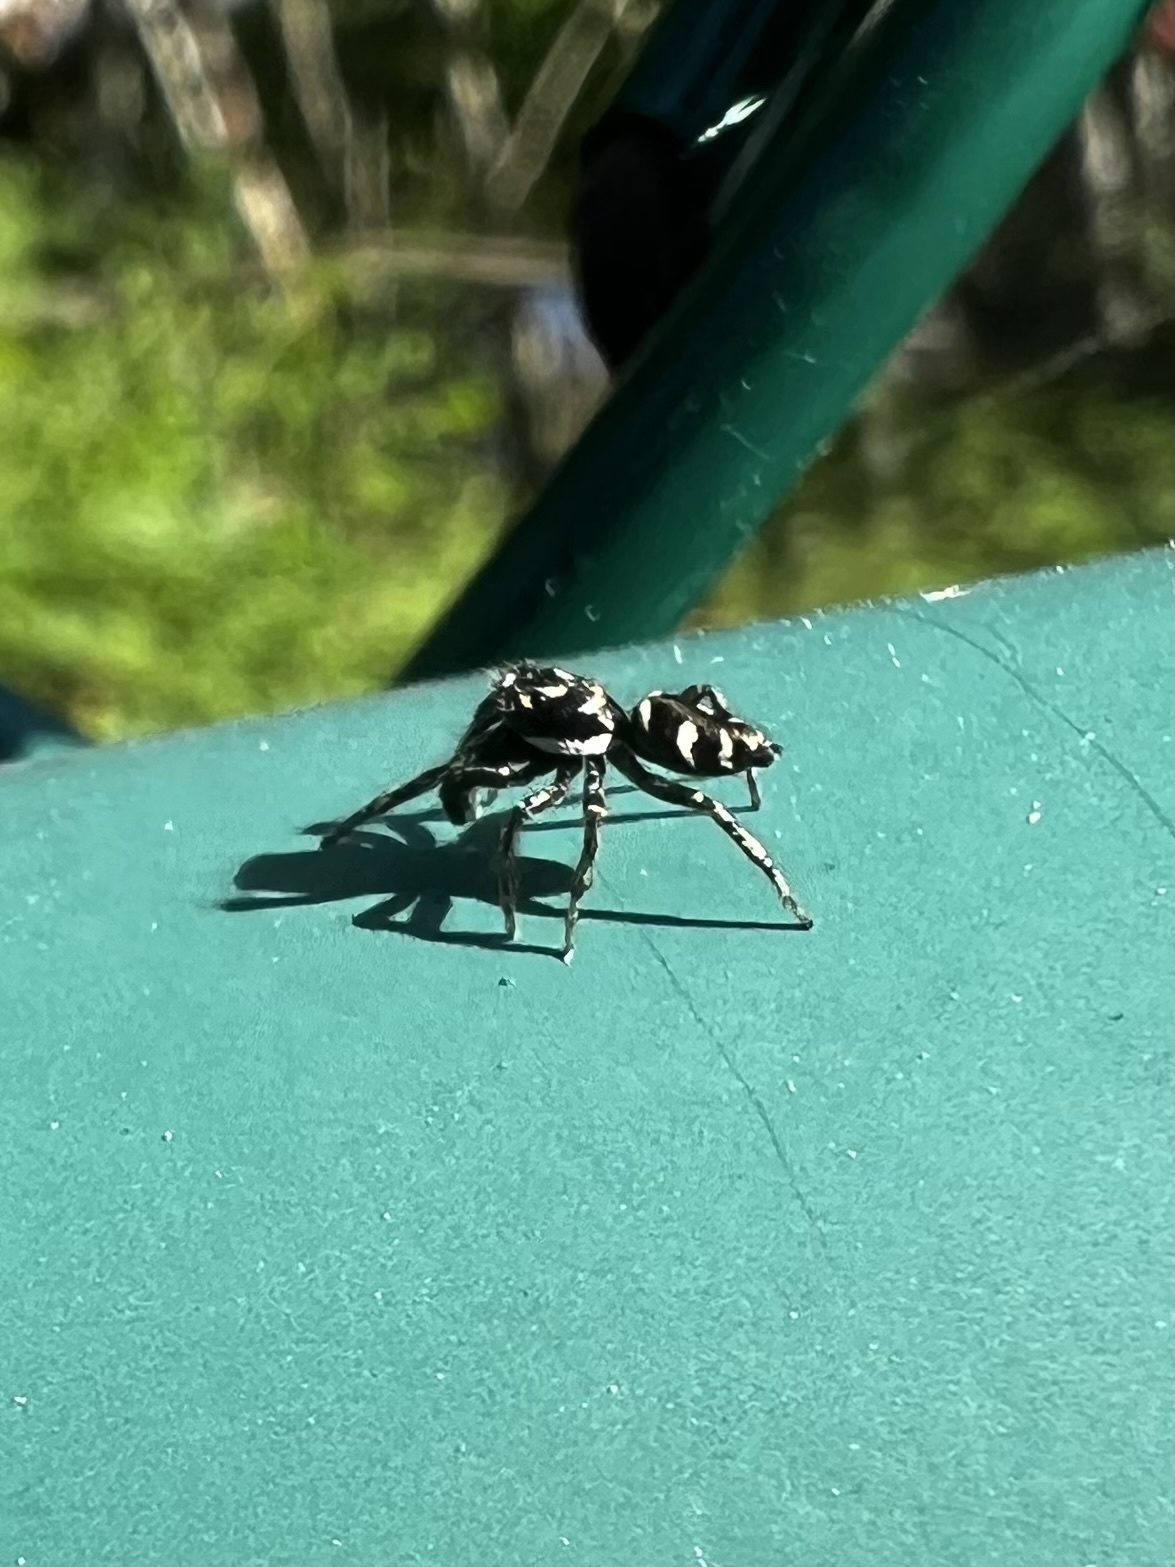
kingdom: Animalia
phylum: Arthropoda
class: Arachnida
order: Araneae
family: Salticidae
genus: Salticus
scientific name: Salticus scenicus
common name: Zebra jumper
